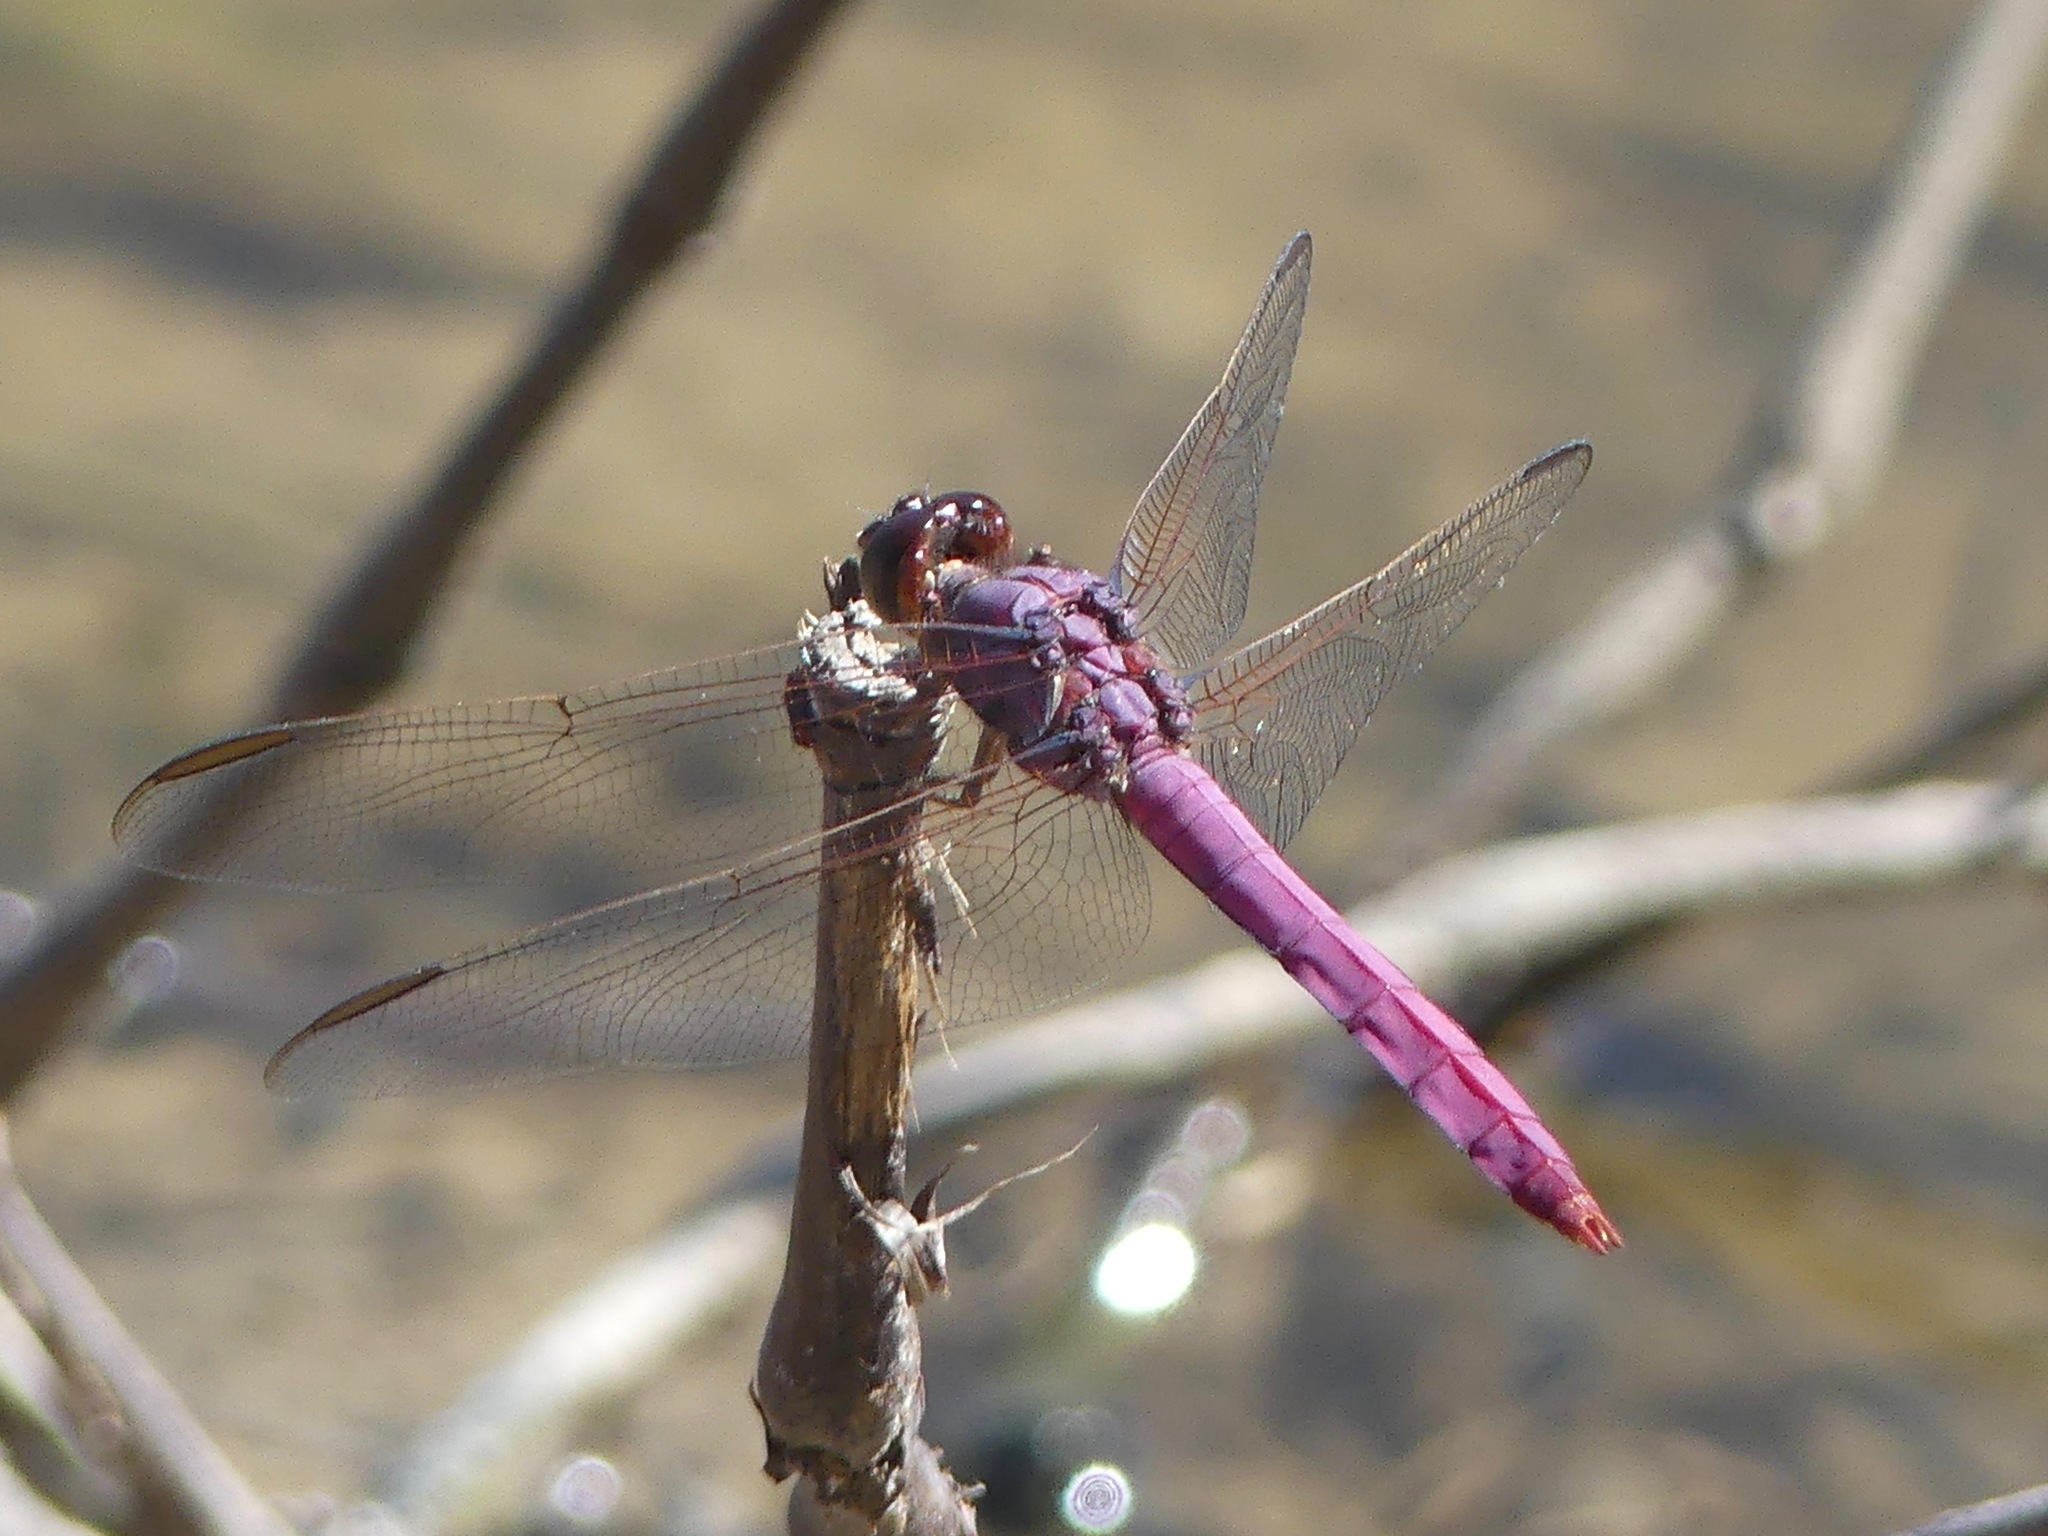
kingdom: Animalia
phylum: Arthropoda
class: Insecta
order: Odonata
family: Libellulidae
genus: Orthemis
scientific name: Orthemis ferruginea
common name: Roseate skimmer
